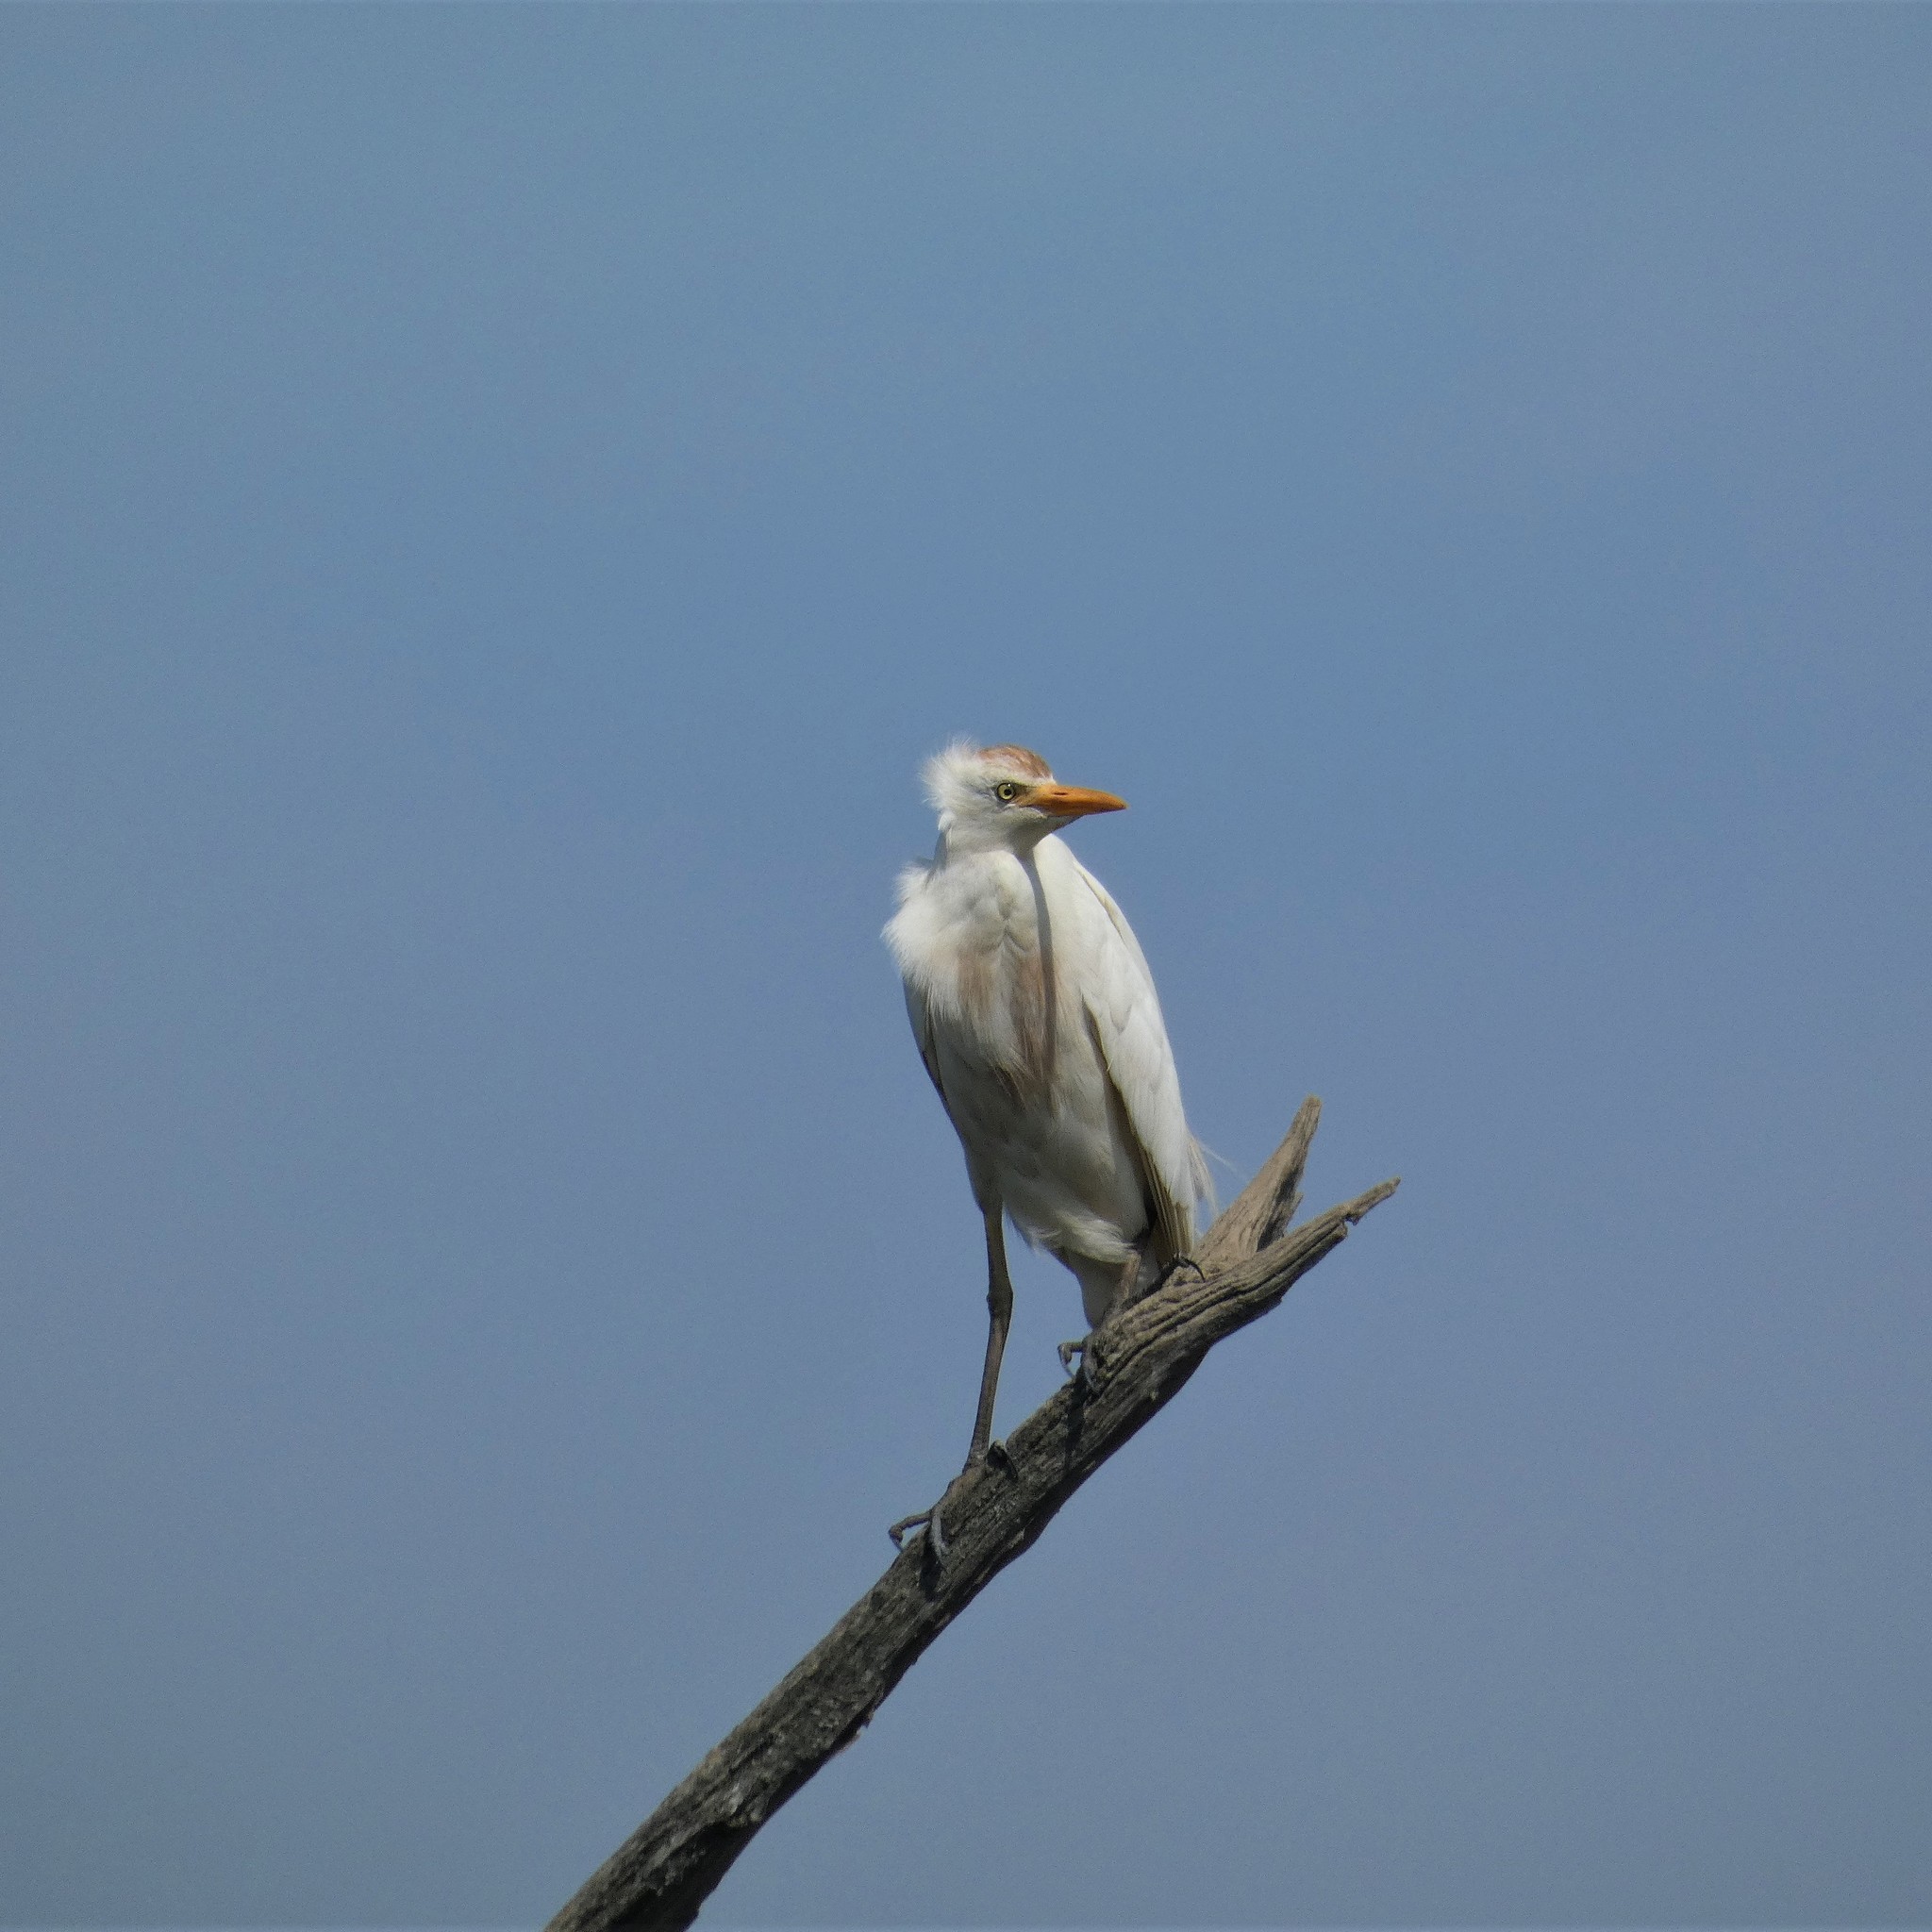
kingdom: Animalia
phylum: Chordata
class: Aves
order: Pelecaniformes
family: Ardeidae
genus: Bubulcus
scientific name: Bubulcus ibis
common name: Cattle egret
